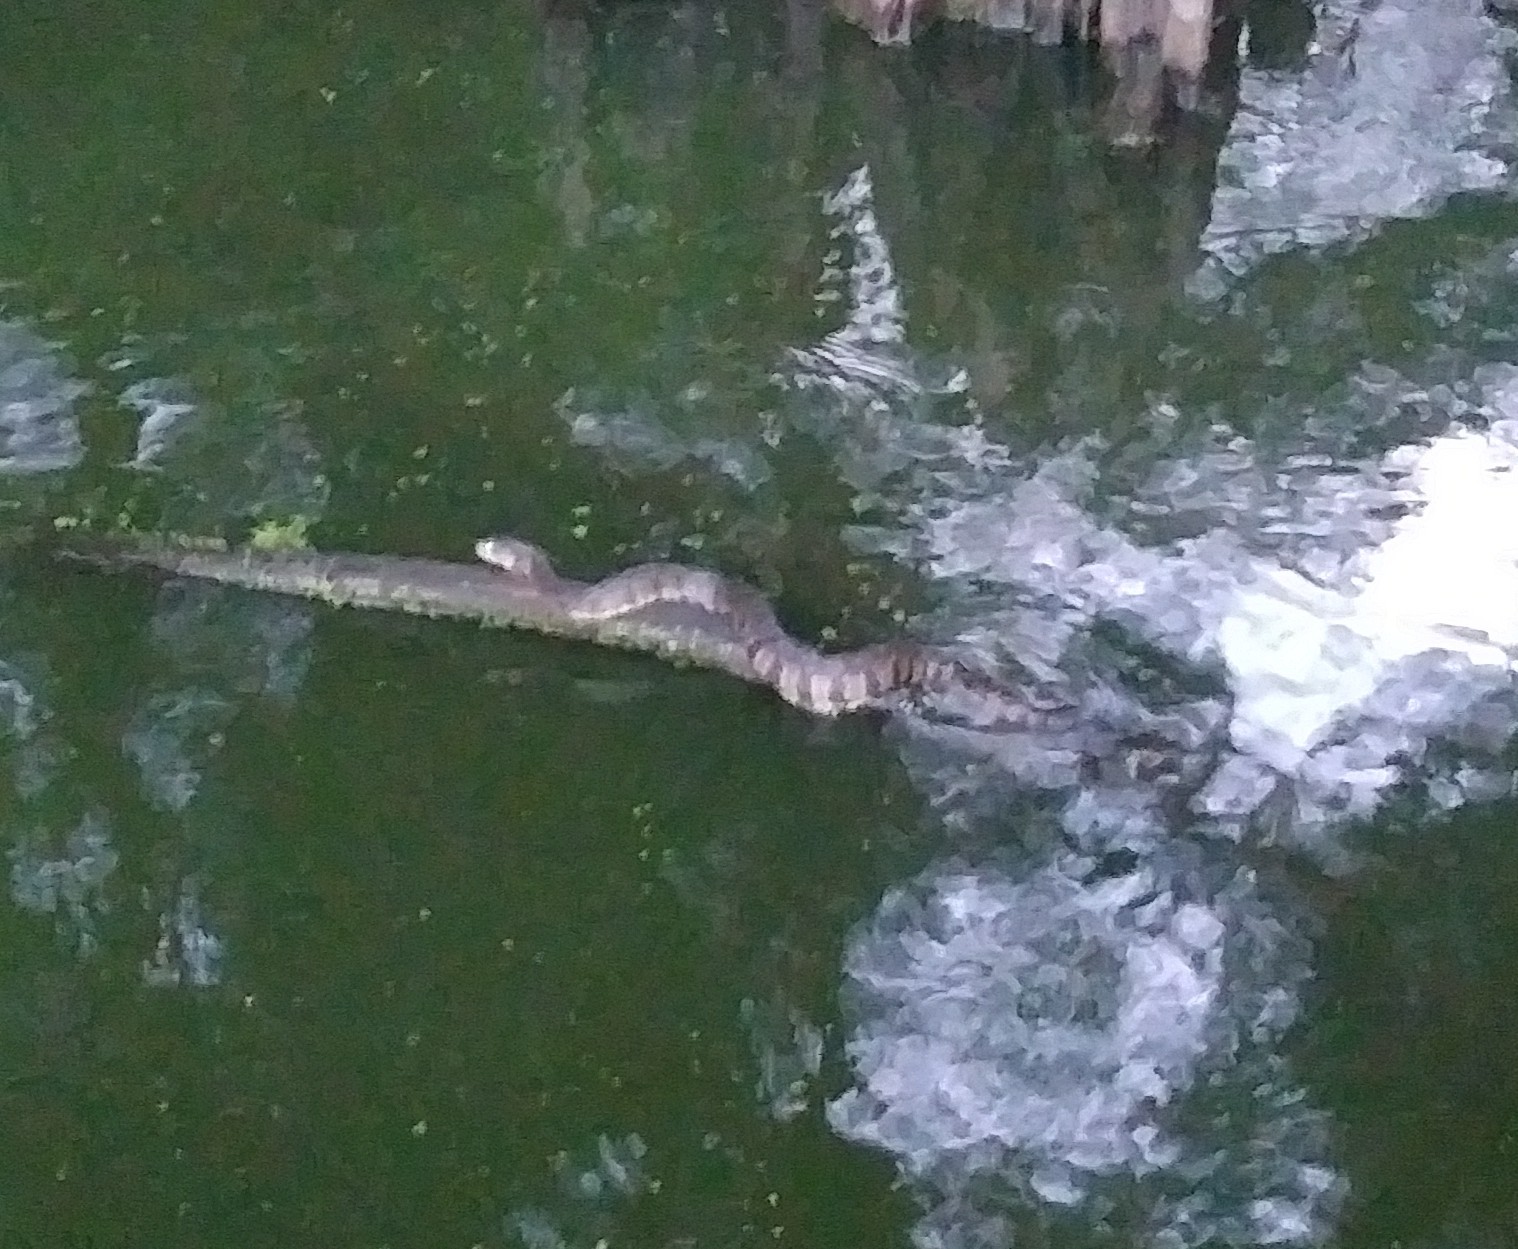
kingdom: Animalia
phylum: Chordata
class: Squamata
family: Colubridae
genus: Nerodia
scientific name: Nerodia rhombifer
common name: Diamondback water snake
